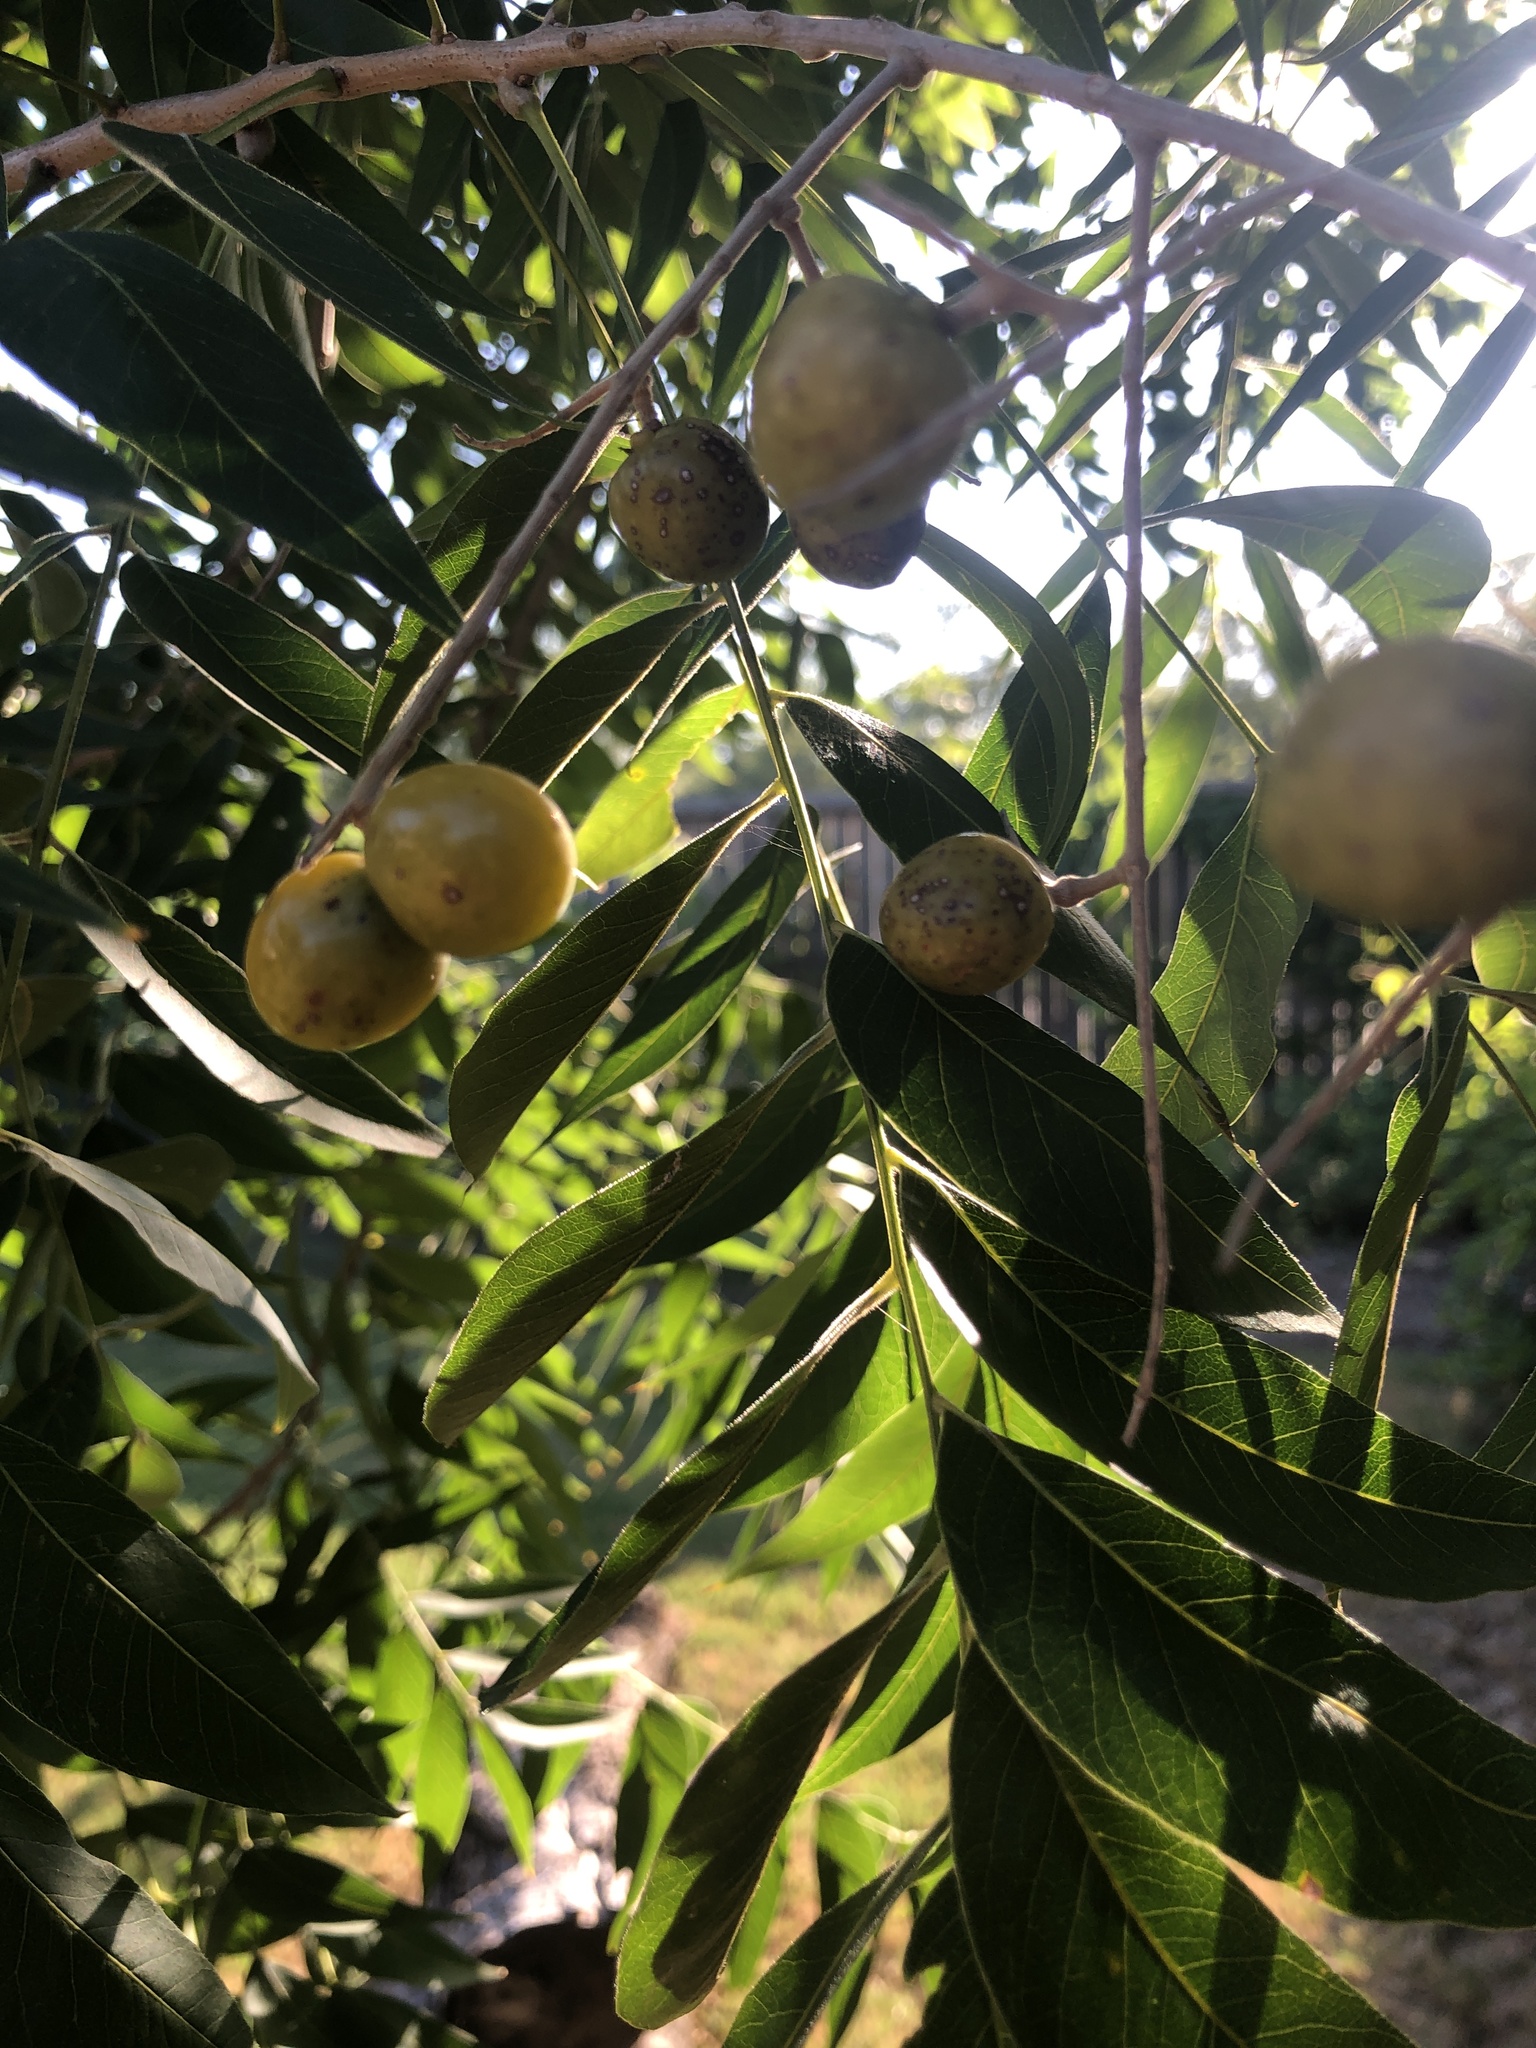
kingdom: Plantae
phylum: Tracheophyta
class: Magnoliopsida
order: Sapindales
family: Sapindaceae
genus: Sapindus
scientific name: Sapindus drummondii
